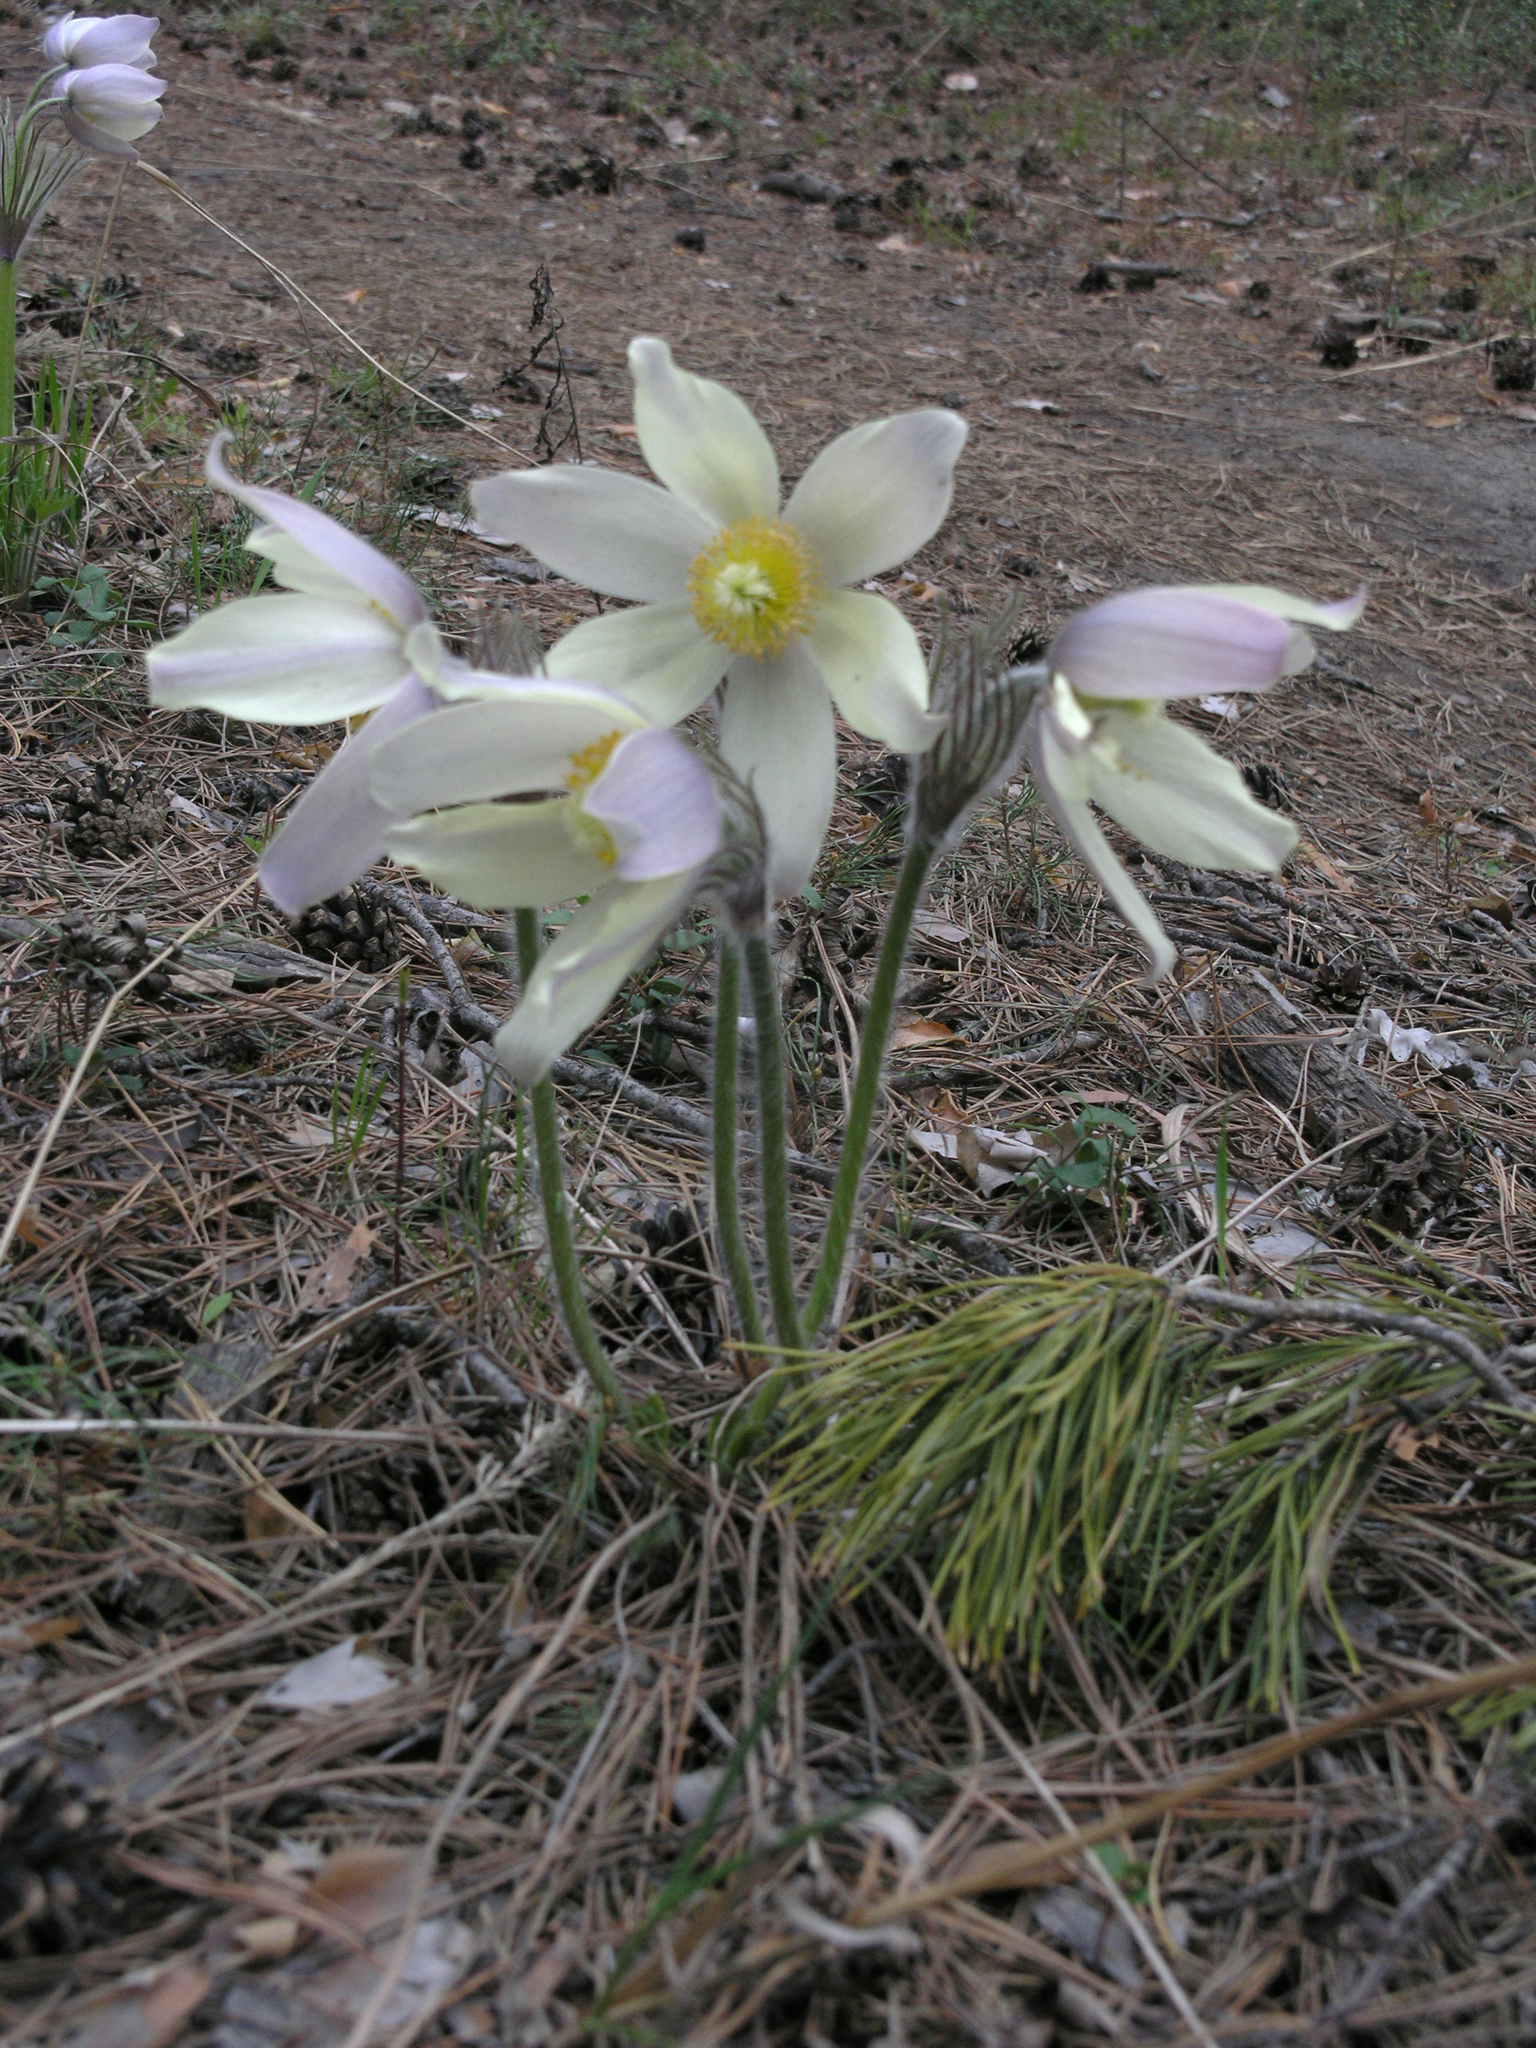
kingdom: Plantae
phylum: Tracheophyta
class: Magnoliopsida
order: Ranunculales
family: Ranunculaceae
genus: Pulsatilla
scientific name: Pulsatilla patens
